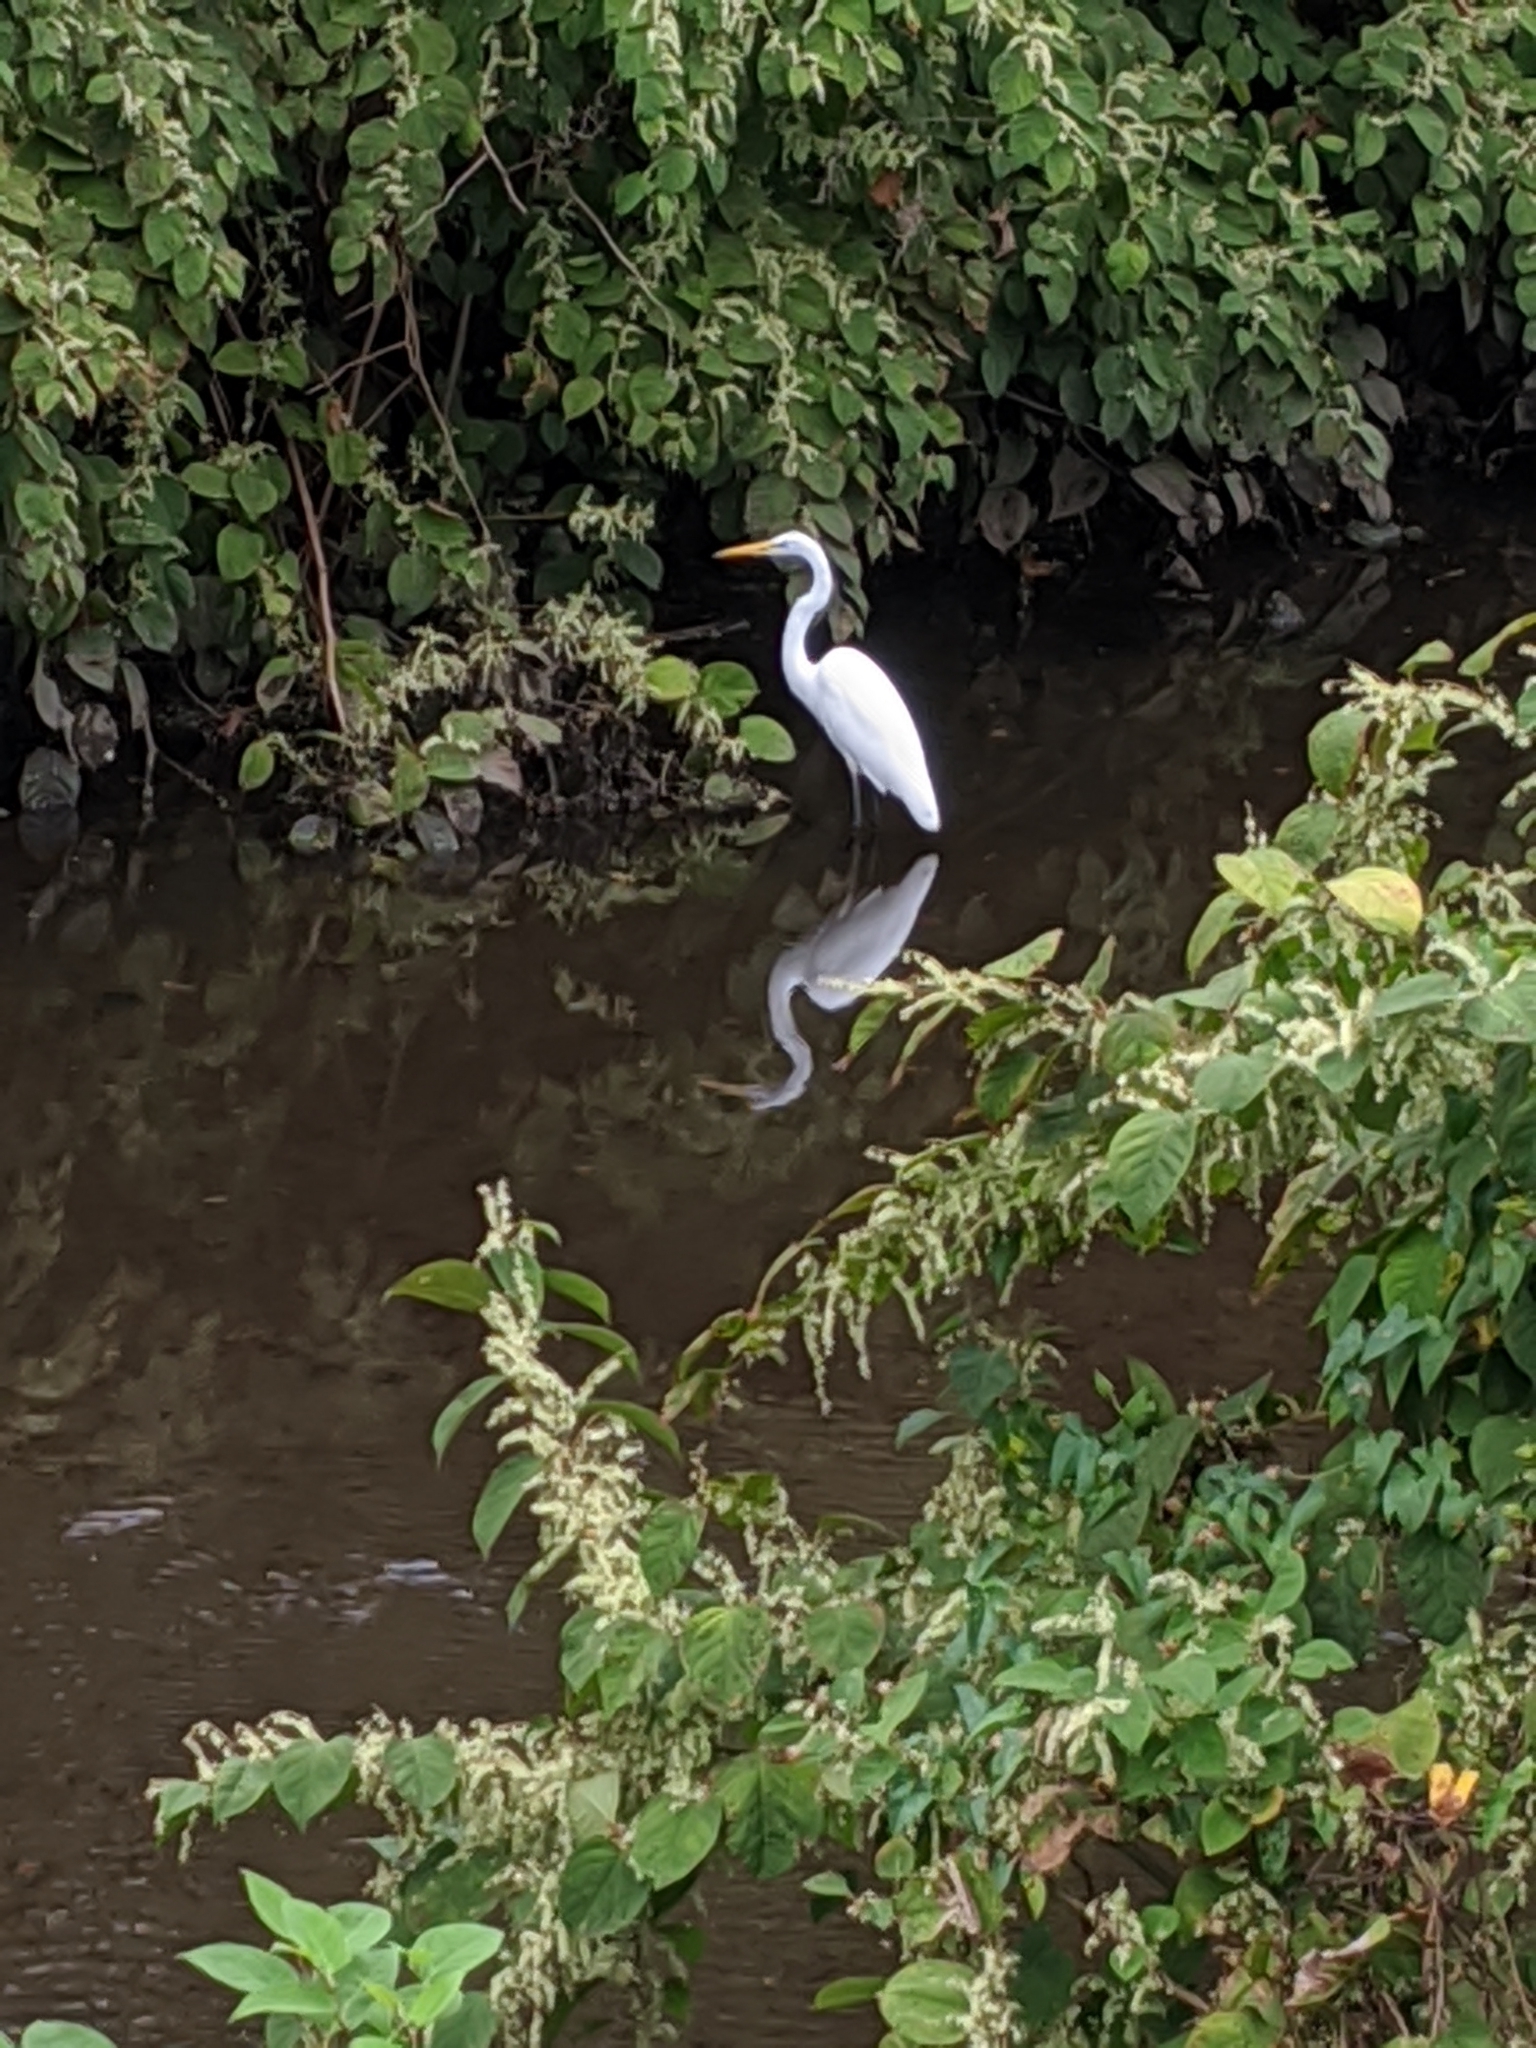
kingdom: Animalia
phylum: Chordata
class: Aves
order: Pelecaniformes
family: Ardeidae
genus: Ardea
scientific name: Ardea alba
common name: Great egret
